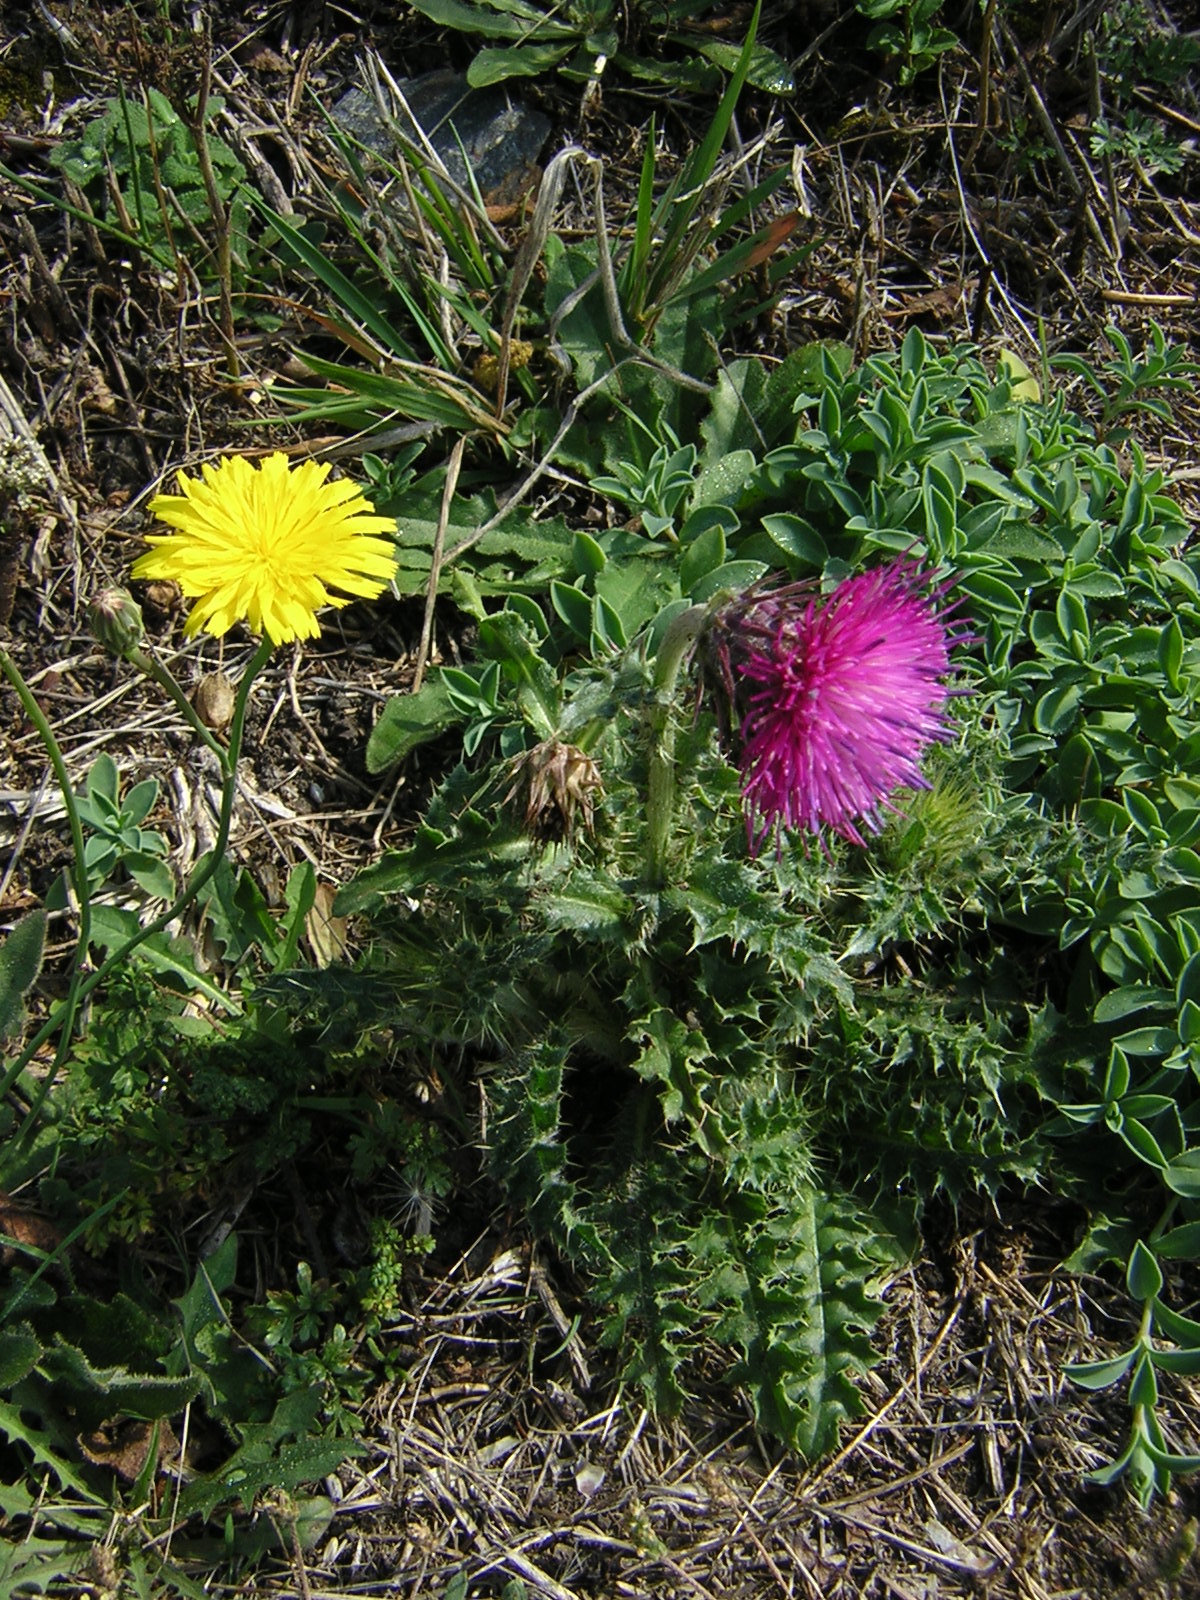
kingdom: Plantae
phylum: Tracheophyta
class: Magnoliopsida
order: Asterales
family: Asteraceae
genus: Carduus
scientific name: Carduus nutans
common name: Musk thistle
